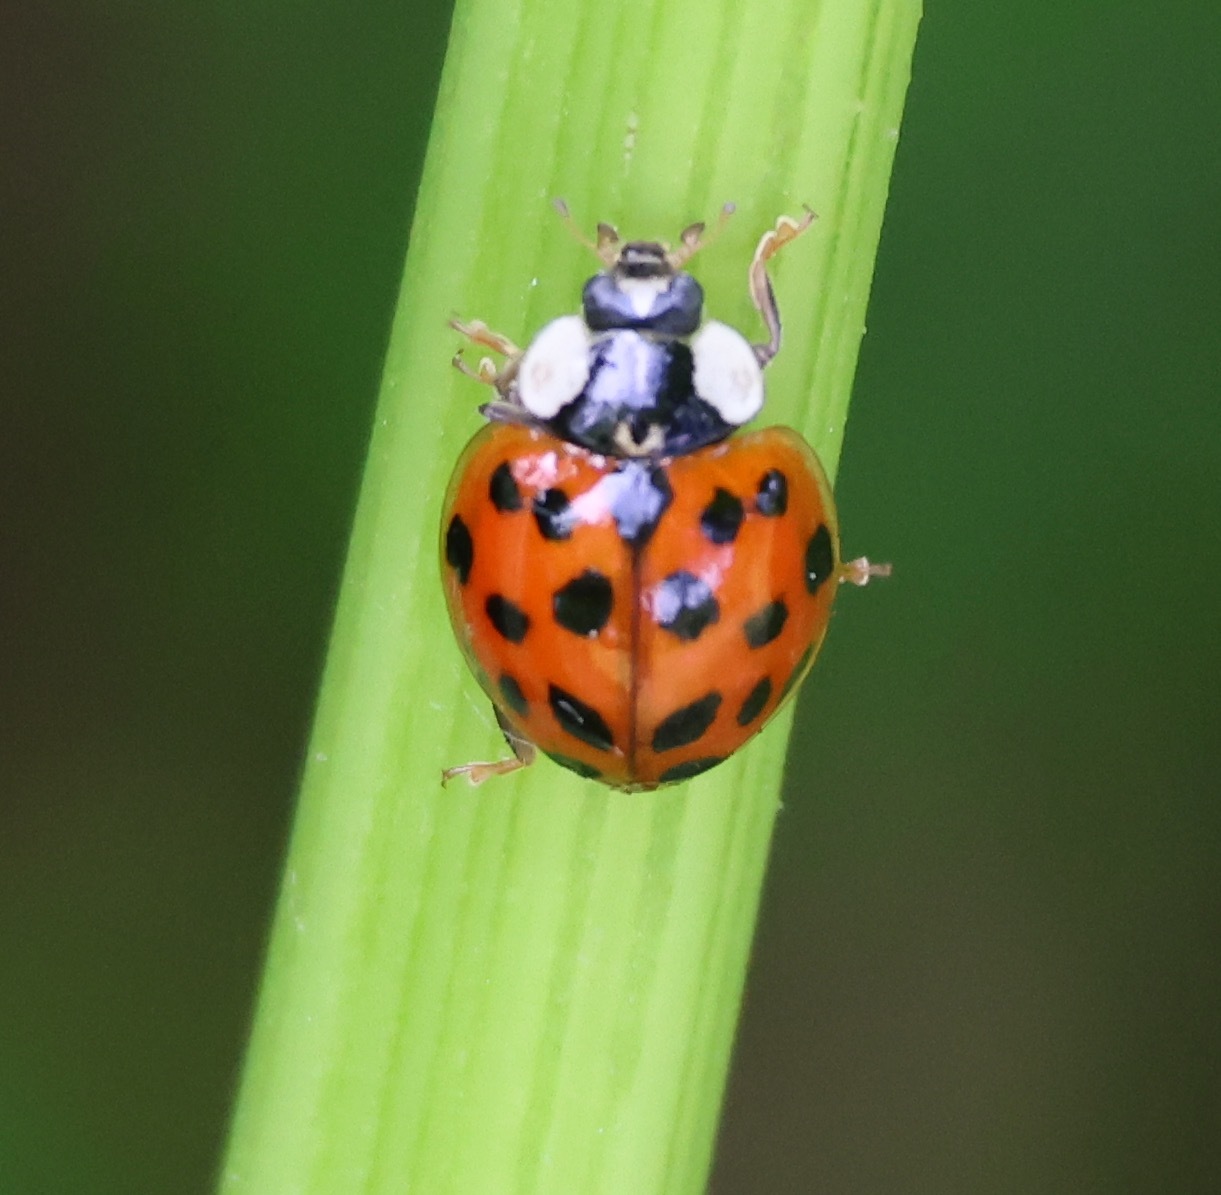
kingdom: Animalia
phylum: Arthropoda
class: Insecta
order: Coleoptera
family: Coccinellidae
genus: Harmonia
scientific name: Harmonia axyridis
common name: Harlequin ladybird
